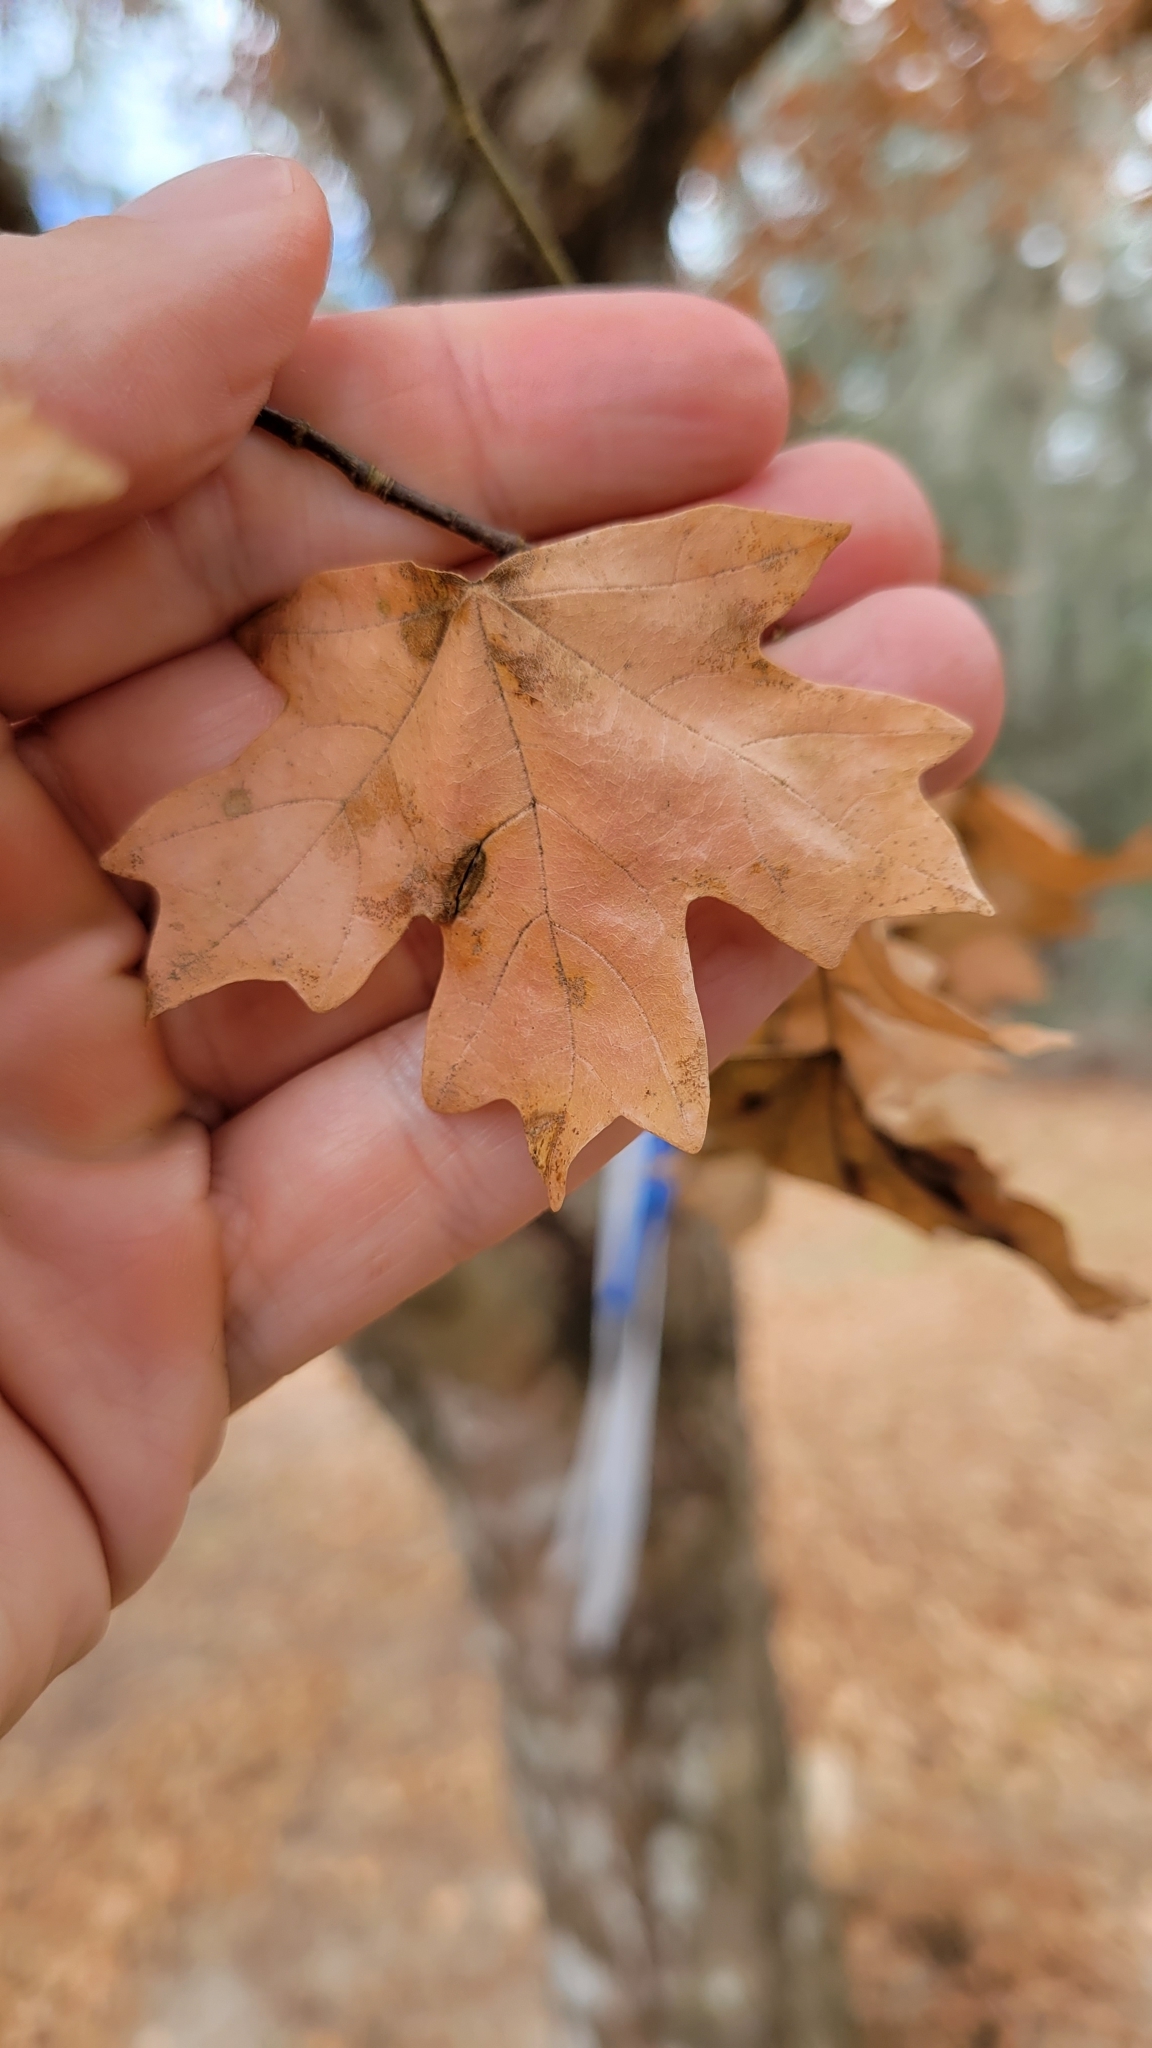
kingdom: Plantae
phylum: Tracheophyta
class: Magnoliopsida
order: Sapindales
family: Sapindaceae
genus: Acer
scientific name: Acer floridanum
